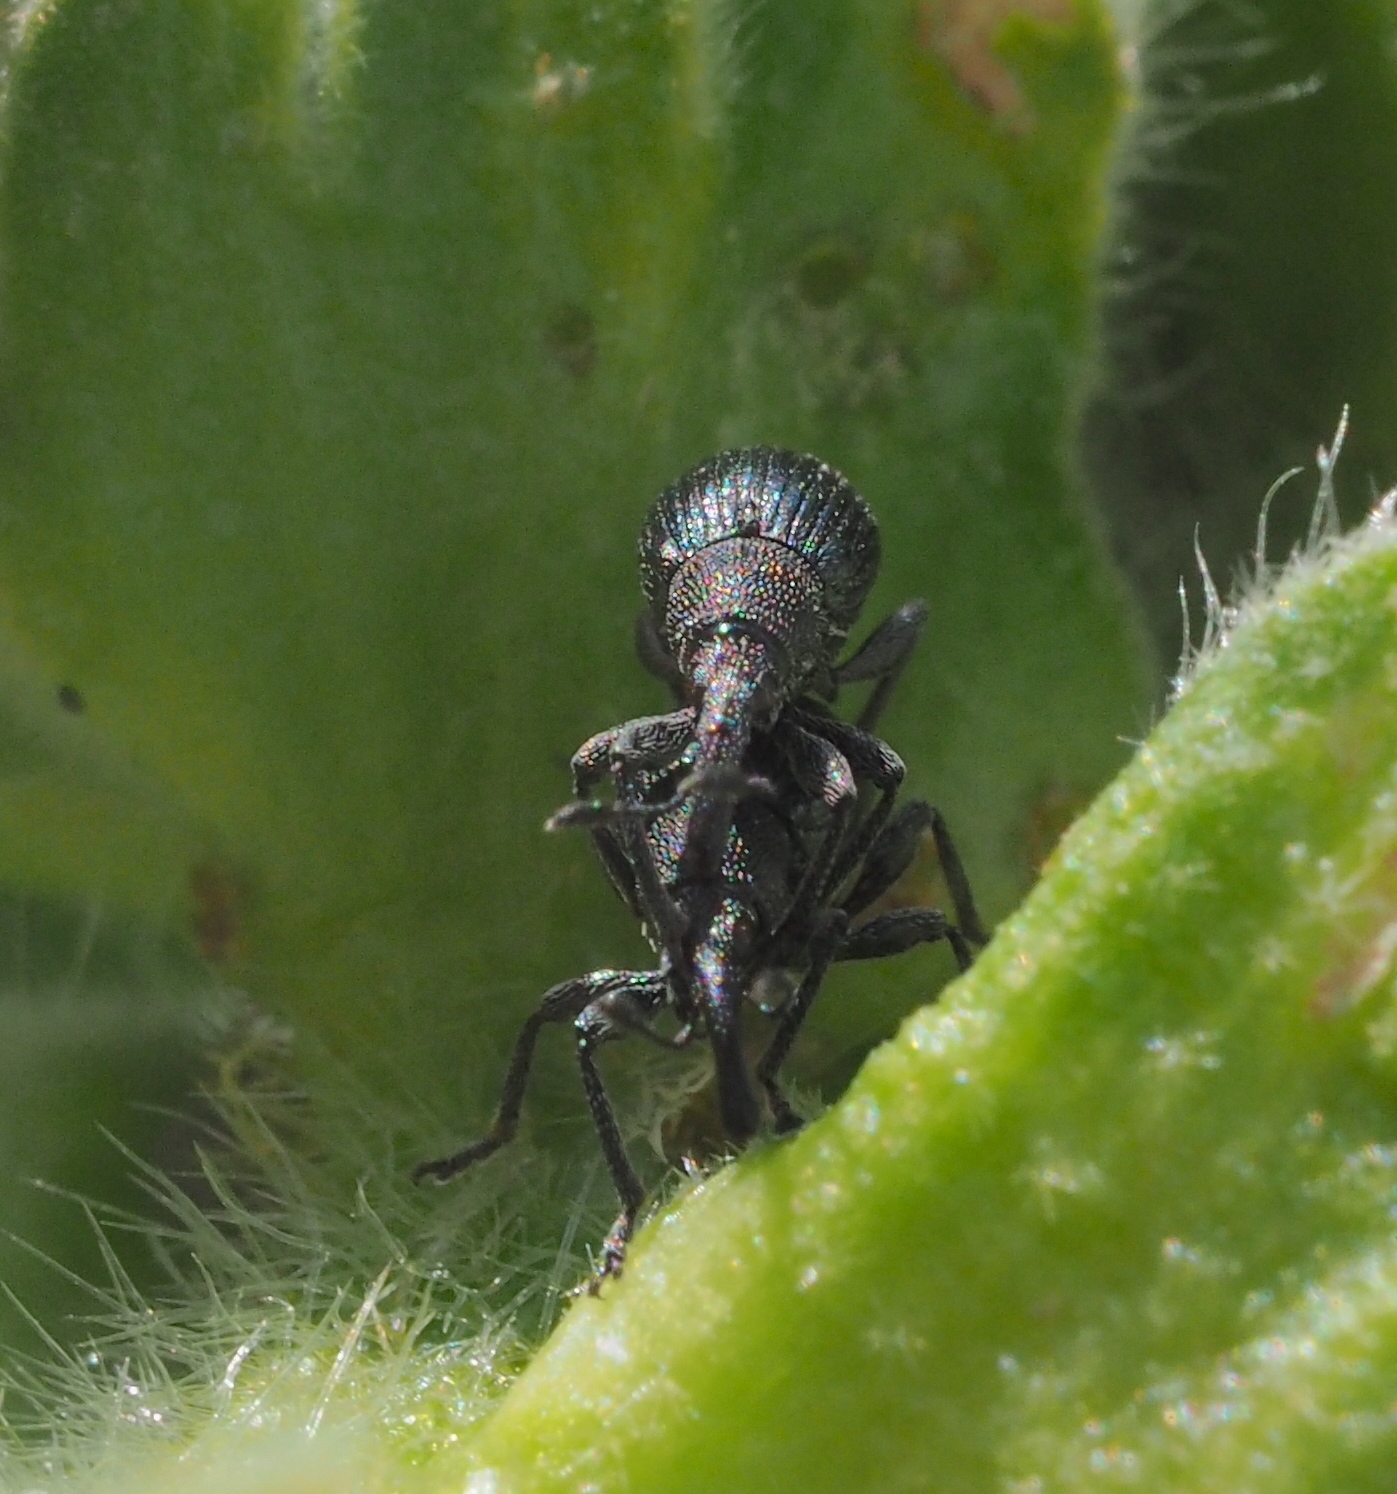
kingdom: Animalia
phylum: Arthropoda
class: Insecta
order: Coleoptera
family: Apionidae
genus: Aspidapion
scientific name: Aspidapion validum
